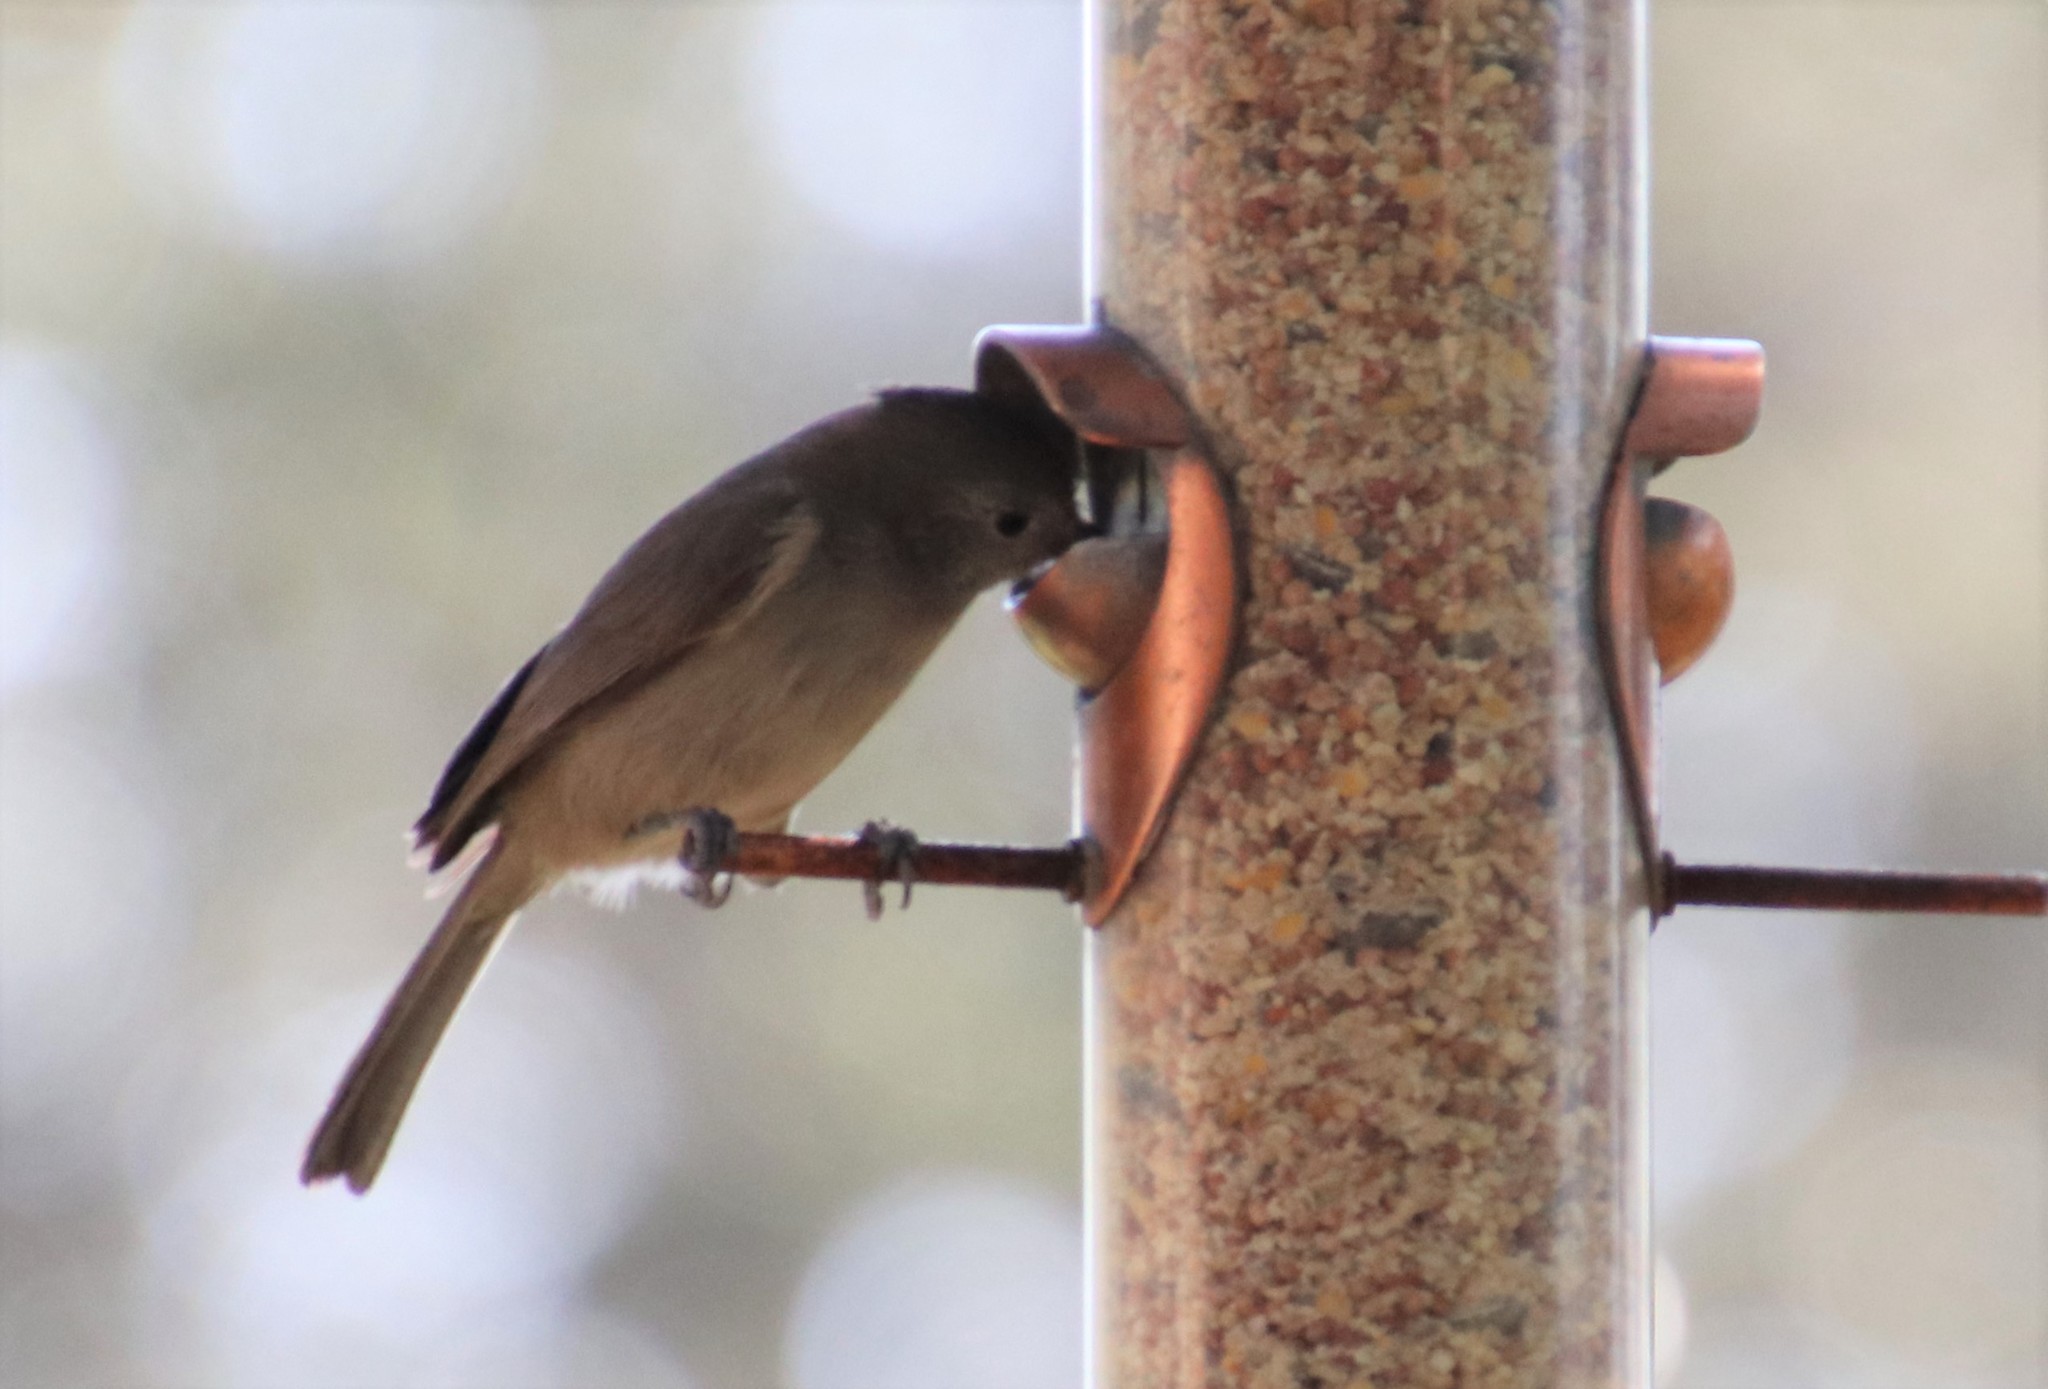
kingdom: Animalia
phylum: Chordata
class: Aves
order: Passeriformes
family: Paridae
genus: Baeolophus
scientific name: Baeolophus inornatus
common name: Oak titmouse
